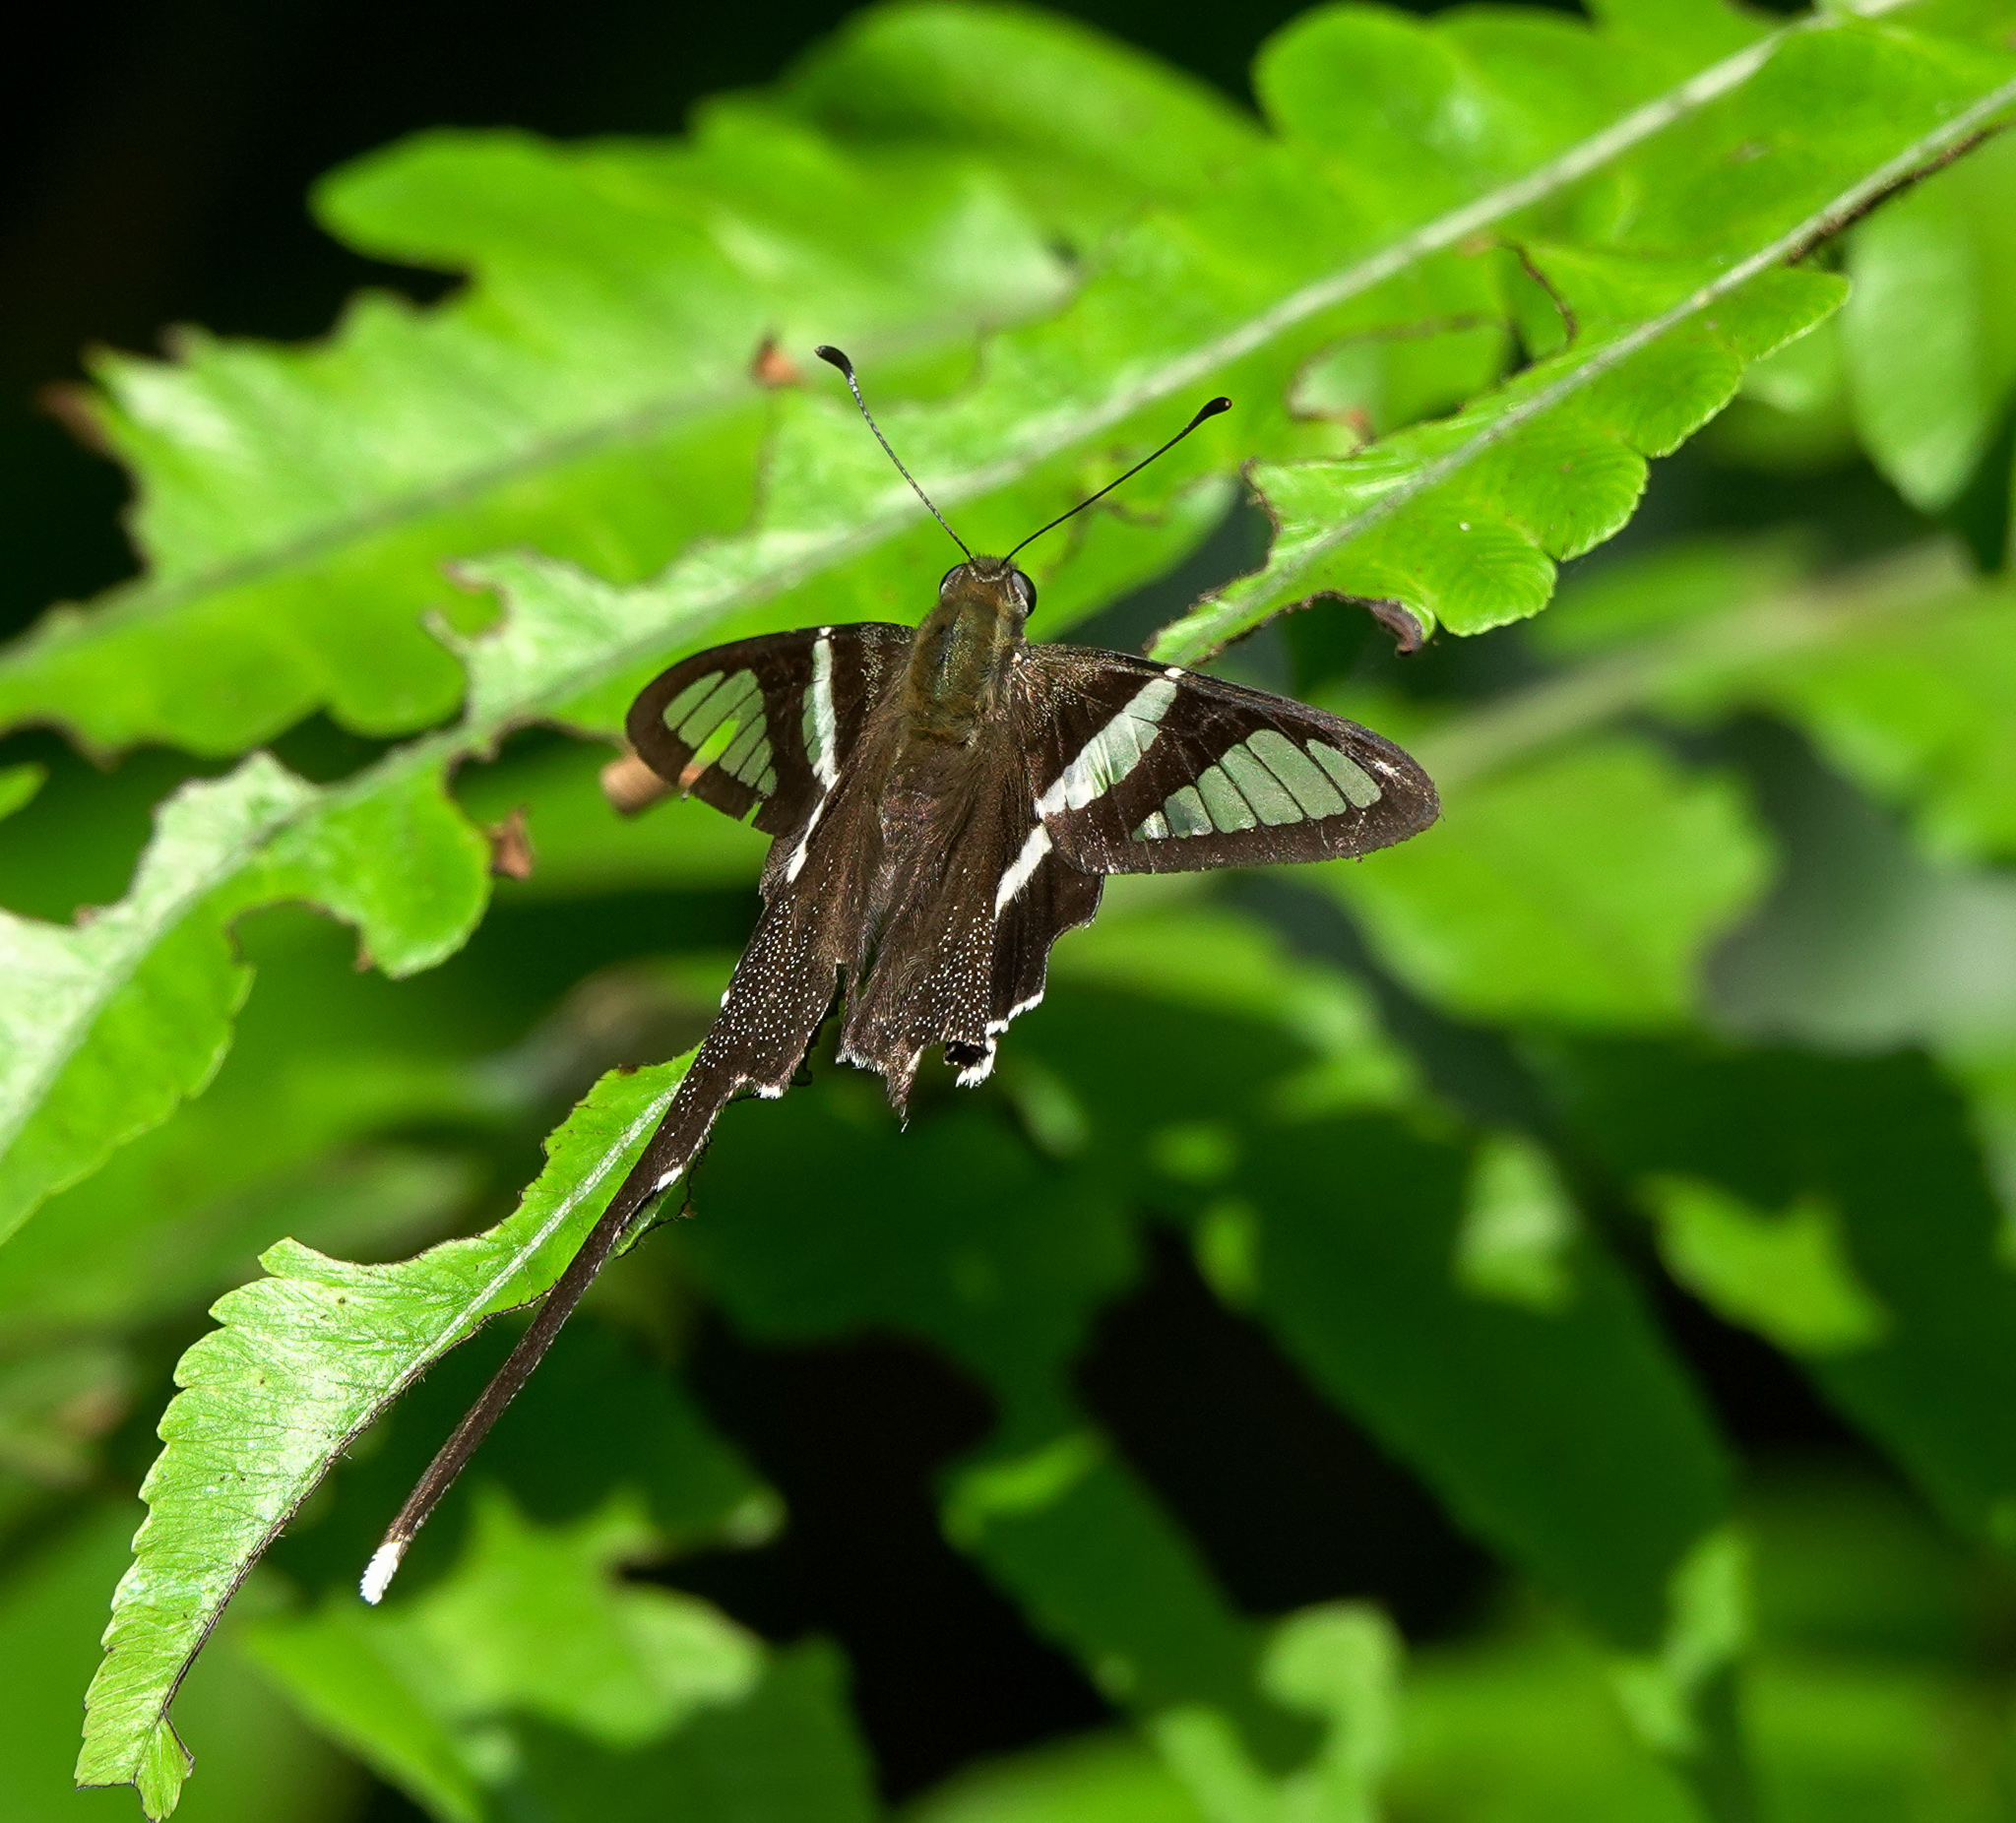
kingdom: Animalia
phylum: Arthropoda
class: Insecta
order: Lepidoptera
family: Papilionidae
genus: Lamproptera
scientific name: Lamproptera curius
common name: White dragontail
